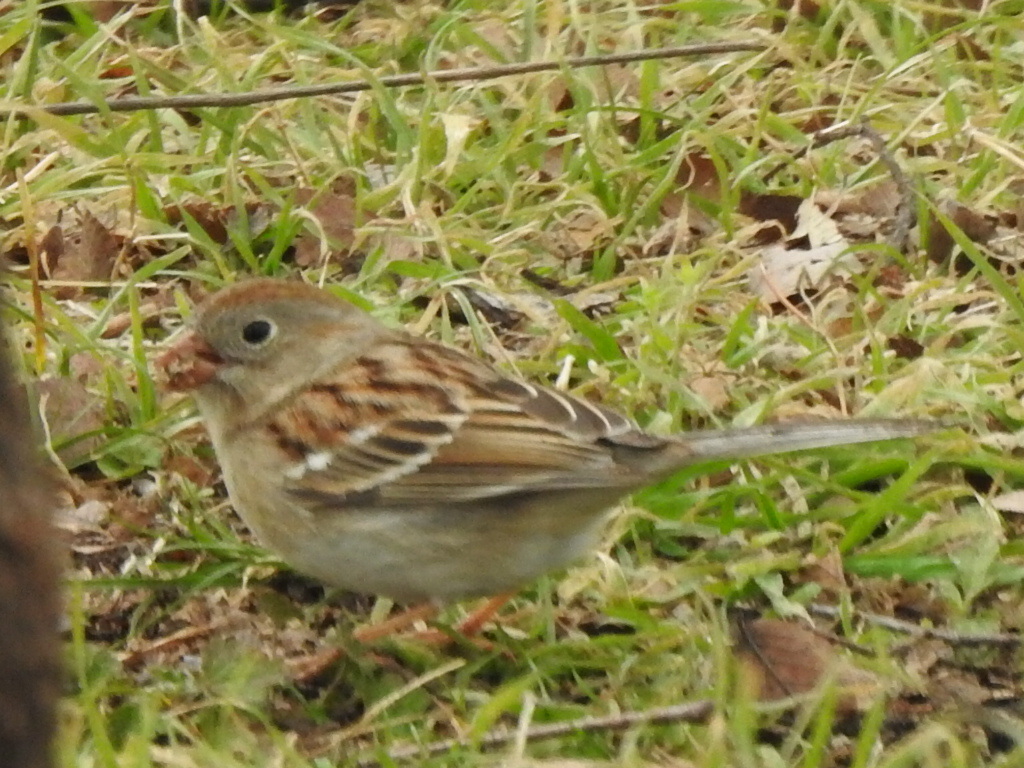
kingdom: Animalia
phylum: Chordata
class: Aves
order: Passeriformes
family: Passerellidae
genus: Spizella
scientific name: Spizella pusilla
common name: Field sparrow
